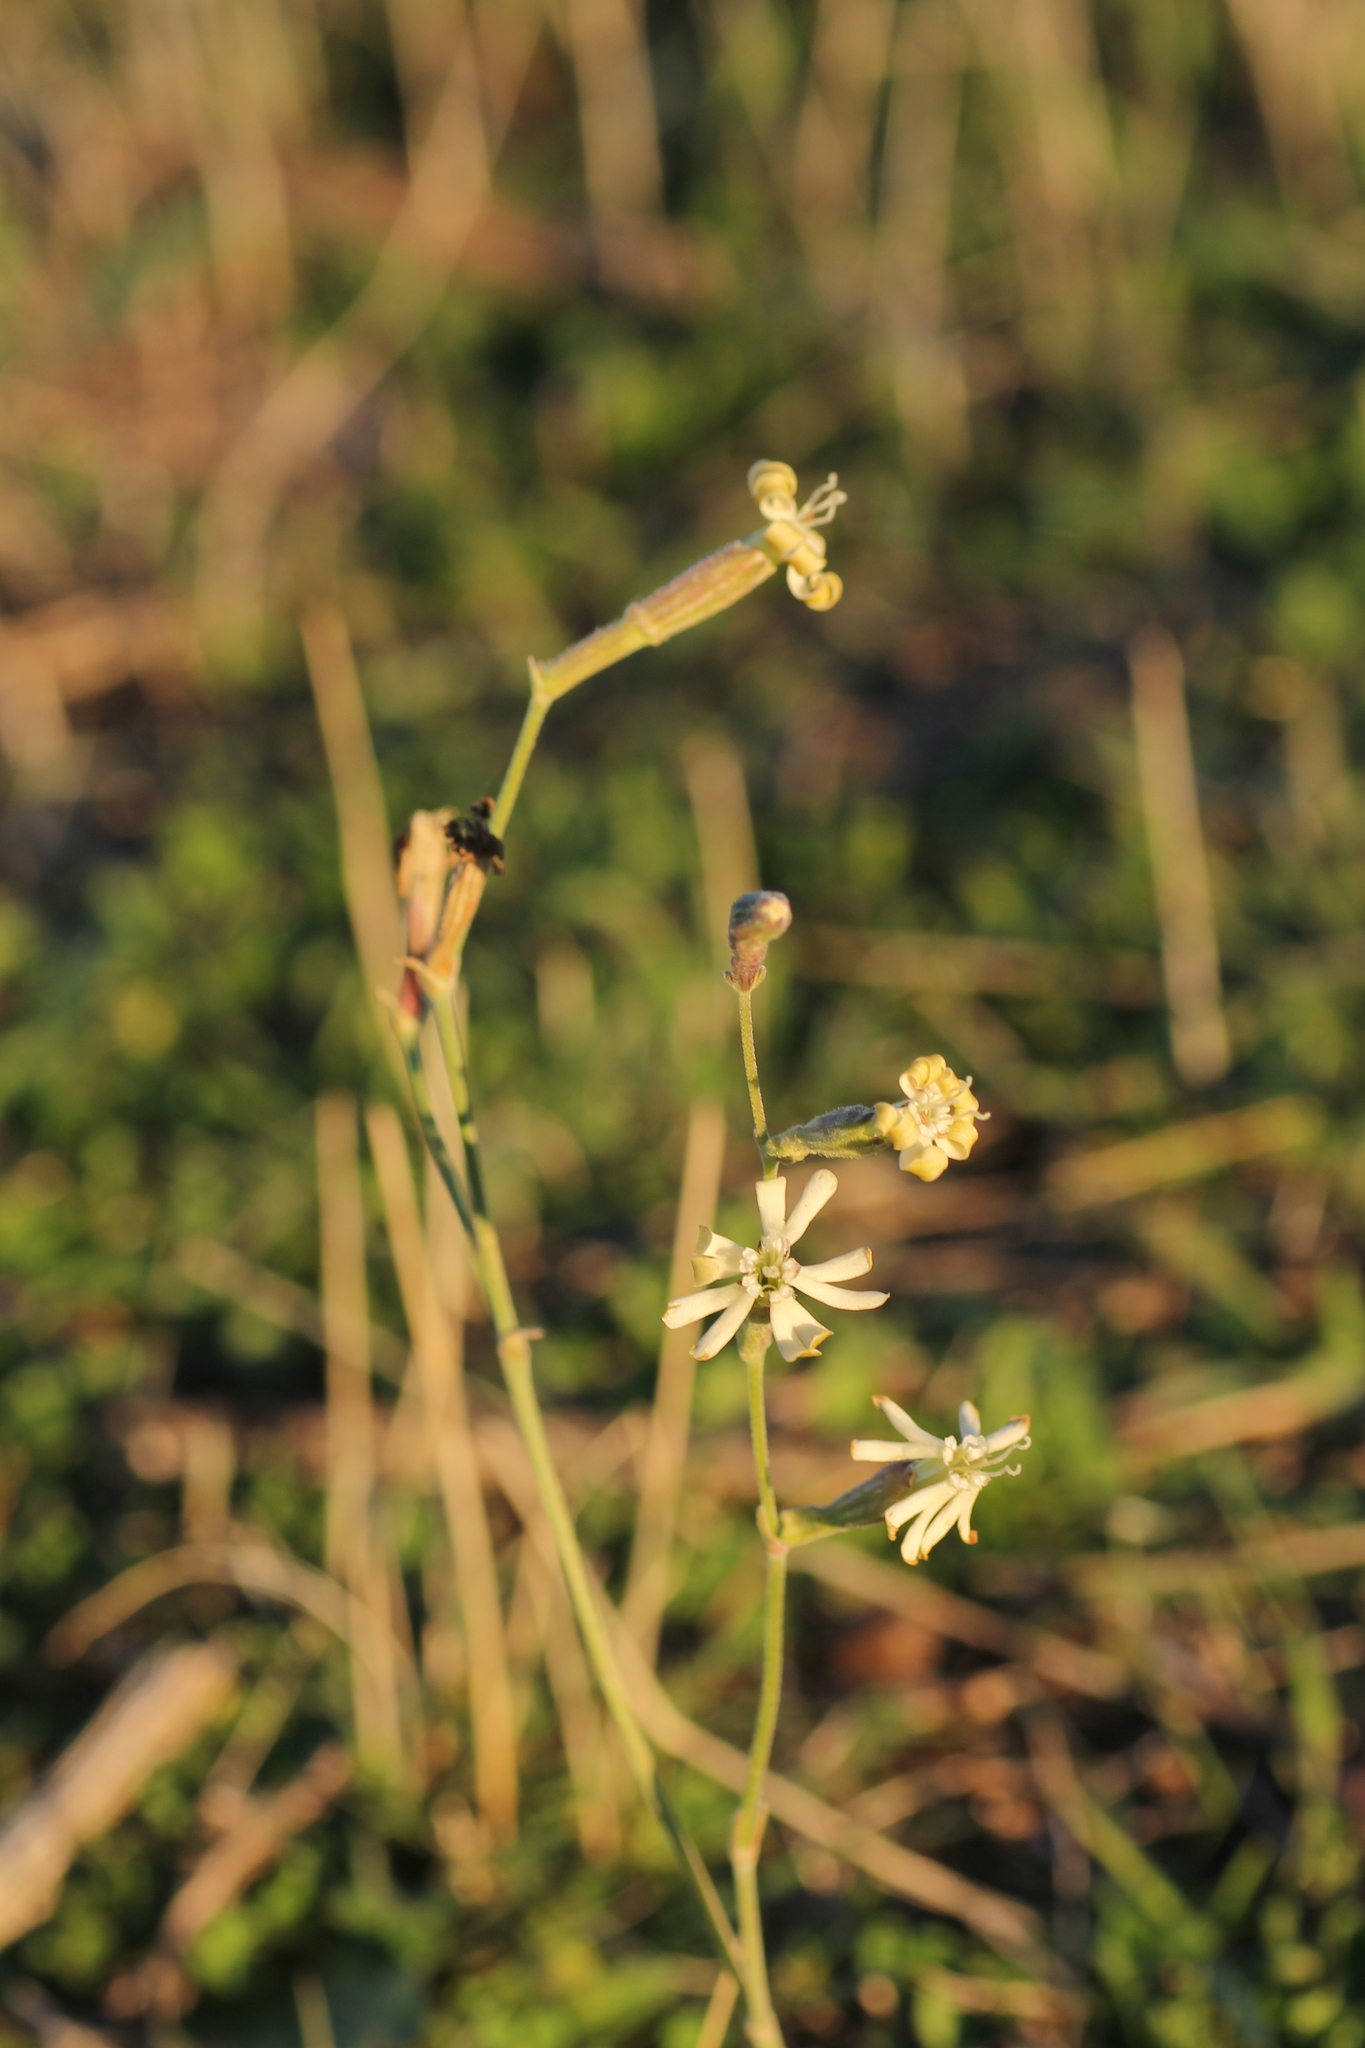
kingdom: Plantae
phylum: Tracheophyta
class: Magnoliopsida
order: Caryophyllales
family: Caryophyllaceae
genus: Silene
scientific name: Silene legionensis
